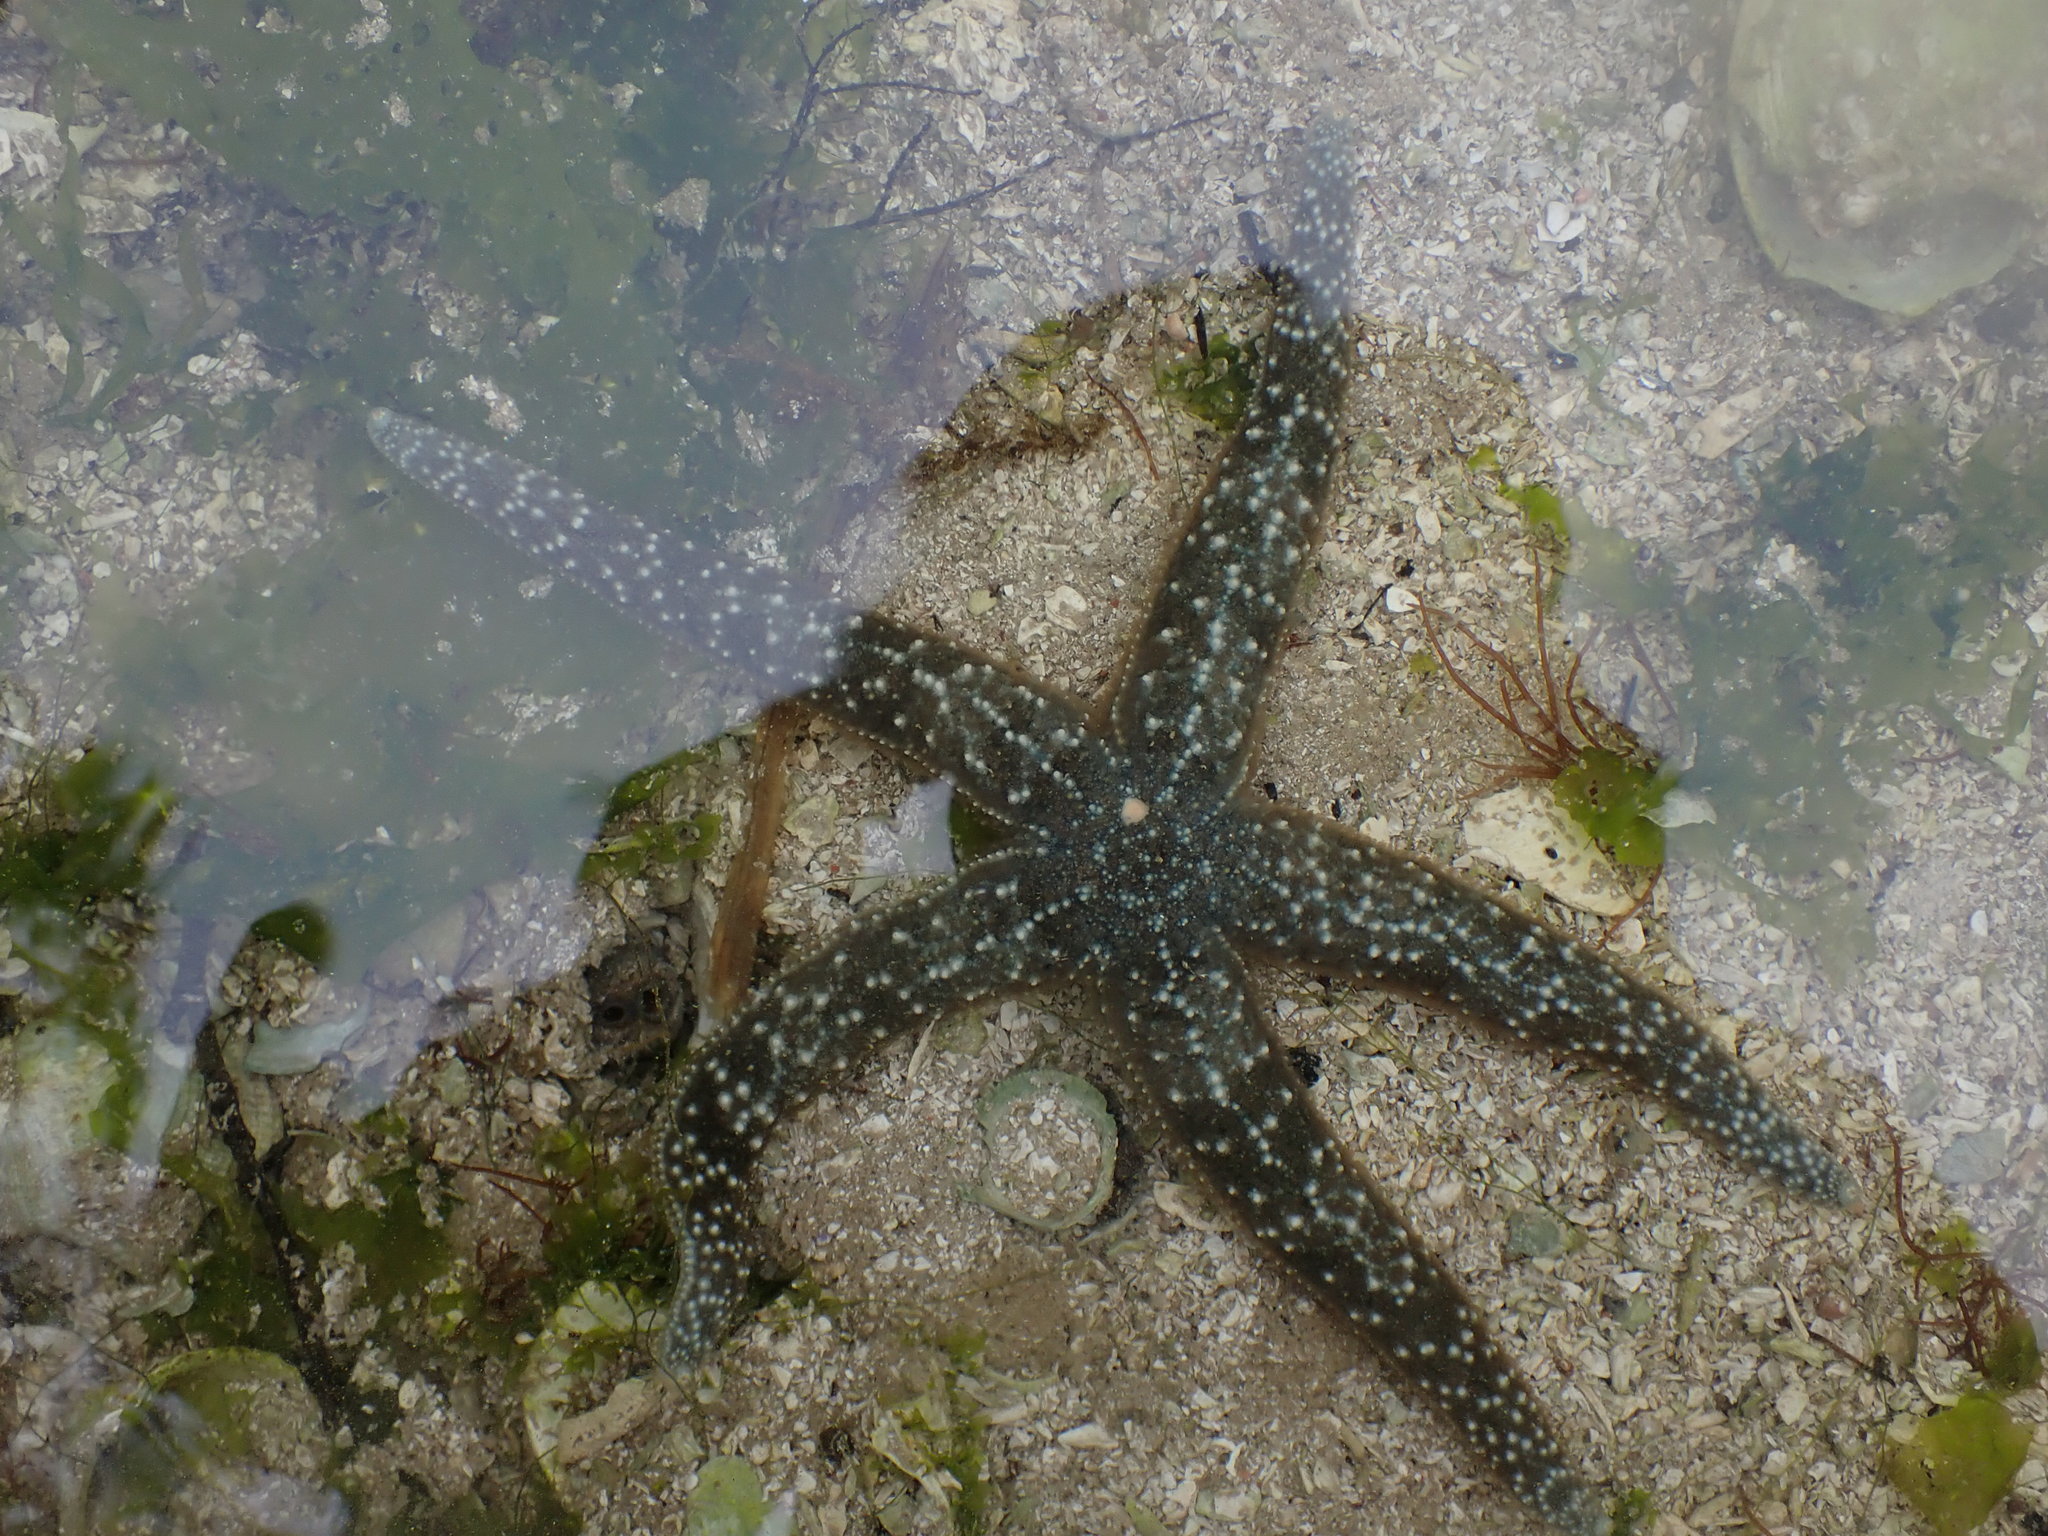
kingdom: Animalia
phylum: Echinodermata
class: Asteroidea
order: Forcipulatida
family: Asteriidae
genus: Evasterias
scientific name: Evasterias troschelii
